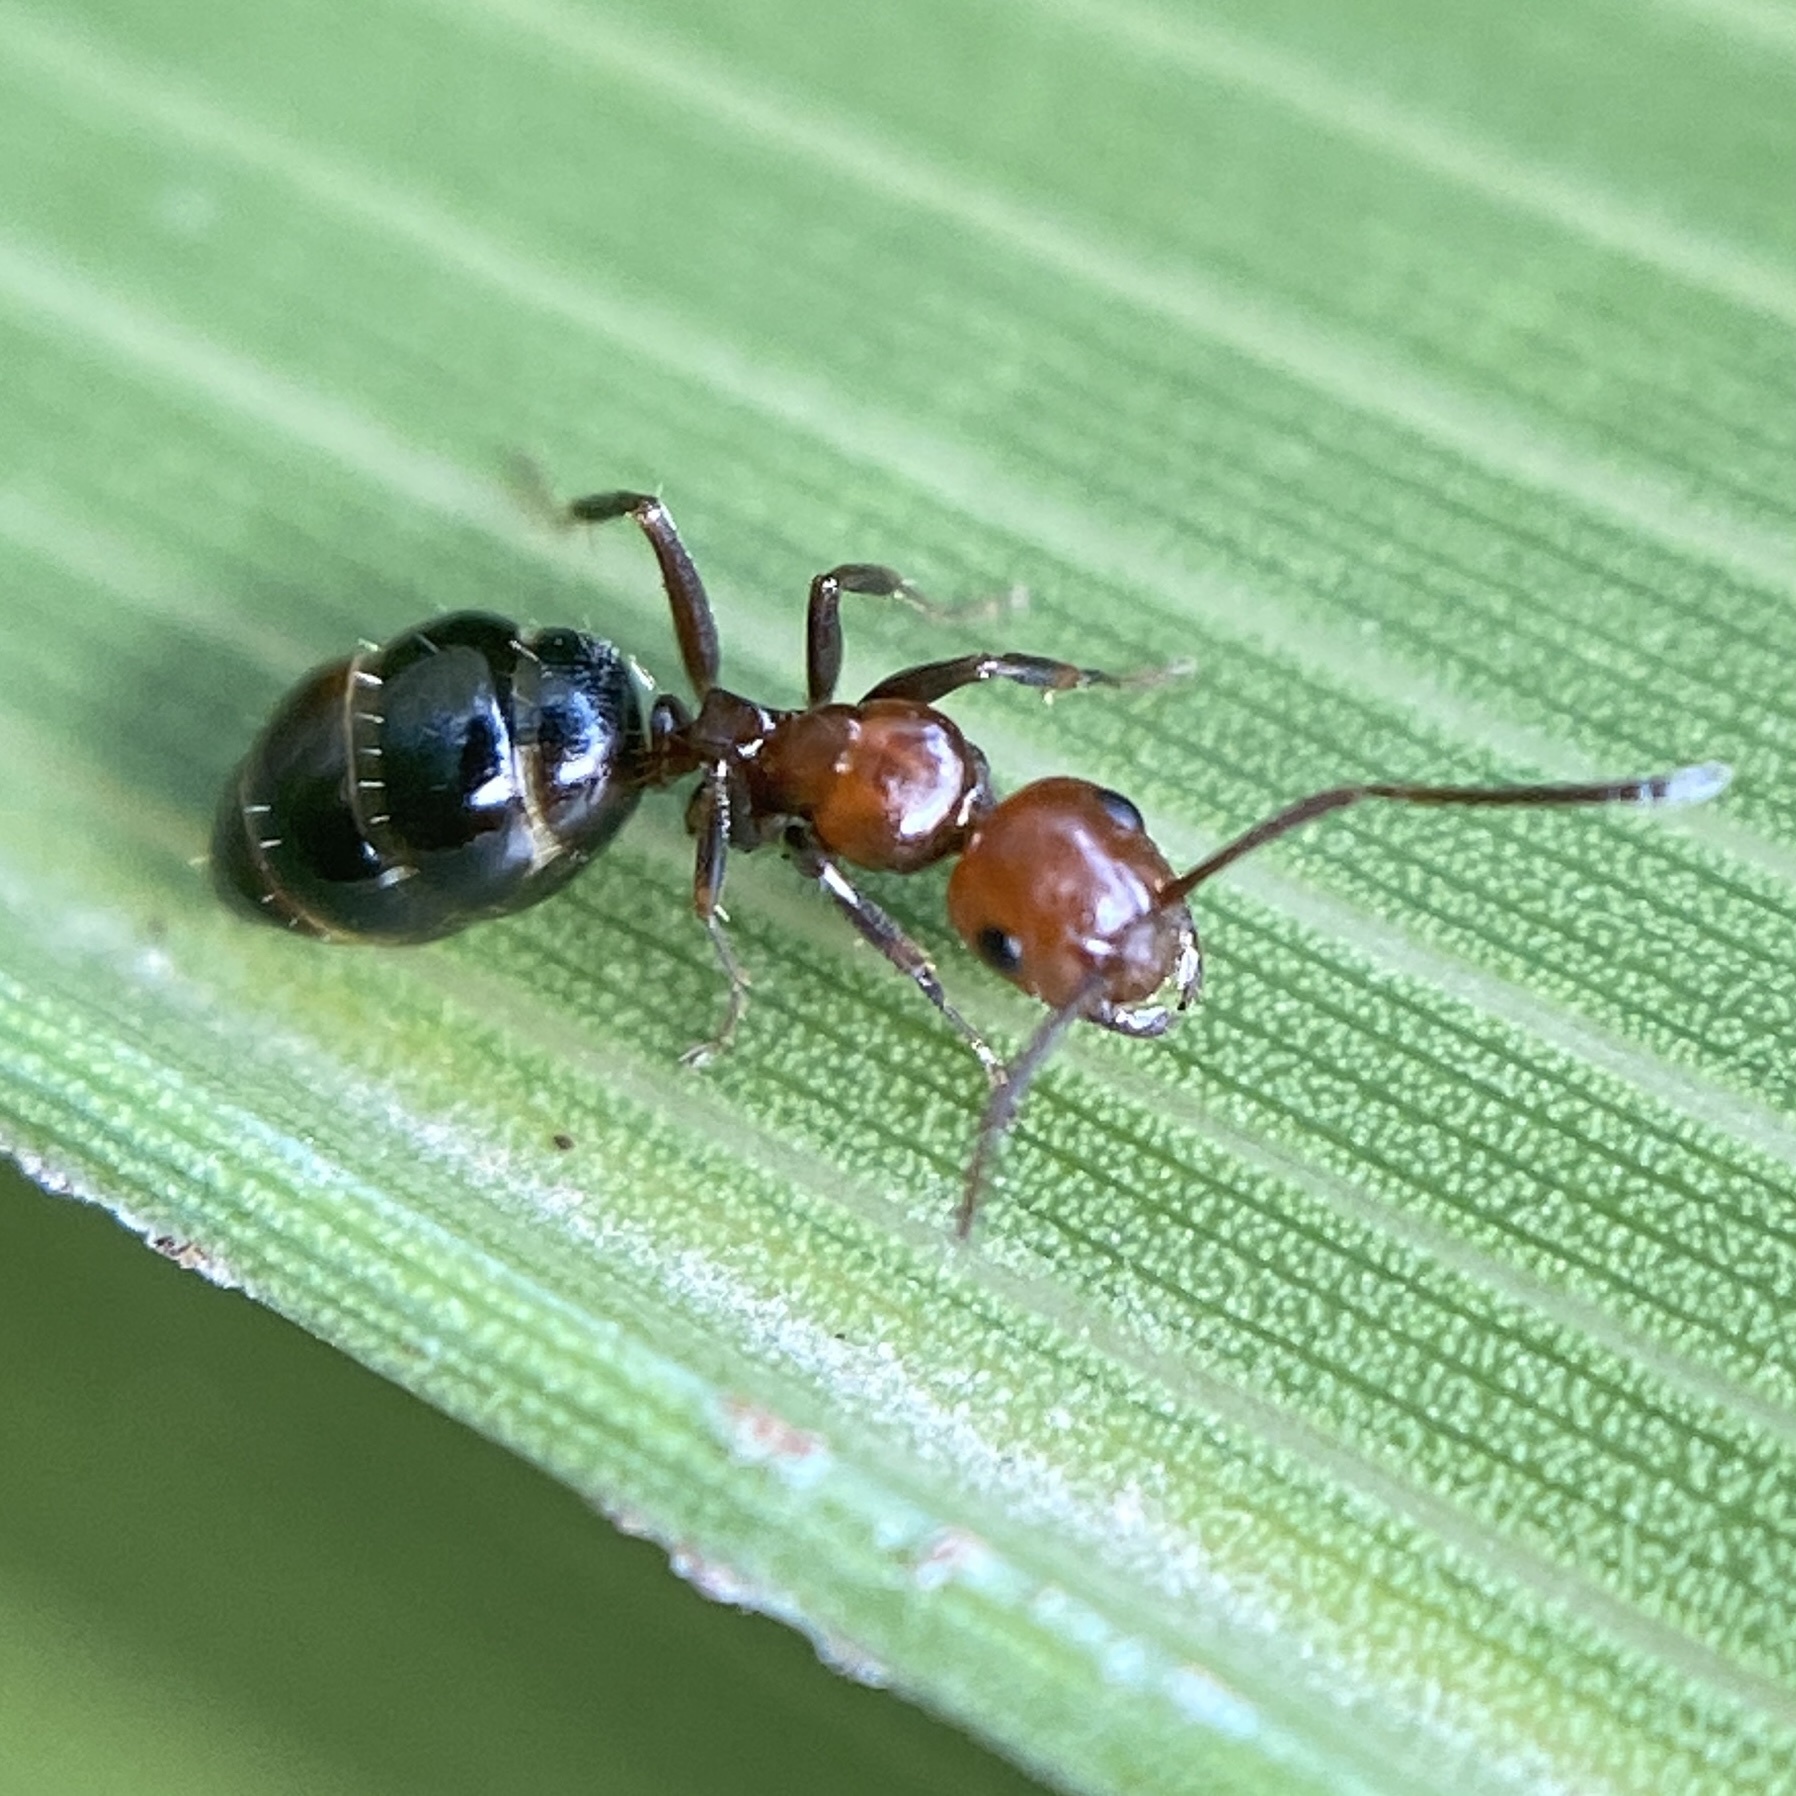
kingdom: Animalia
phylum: Arthropoda
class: Insecta
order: Hymenoptera
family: Formicidae
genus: Camponotus
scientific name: Camponotus lateralis
